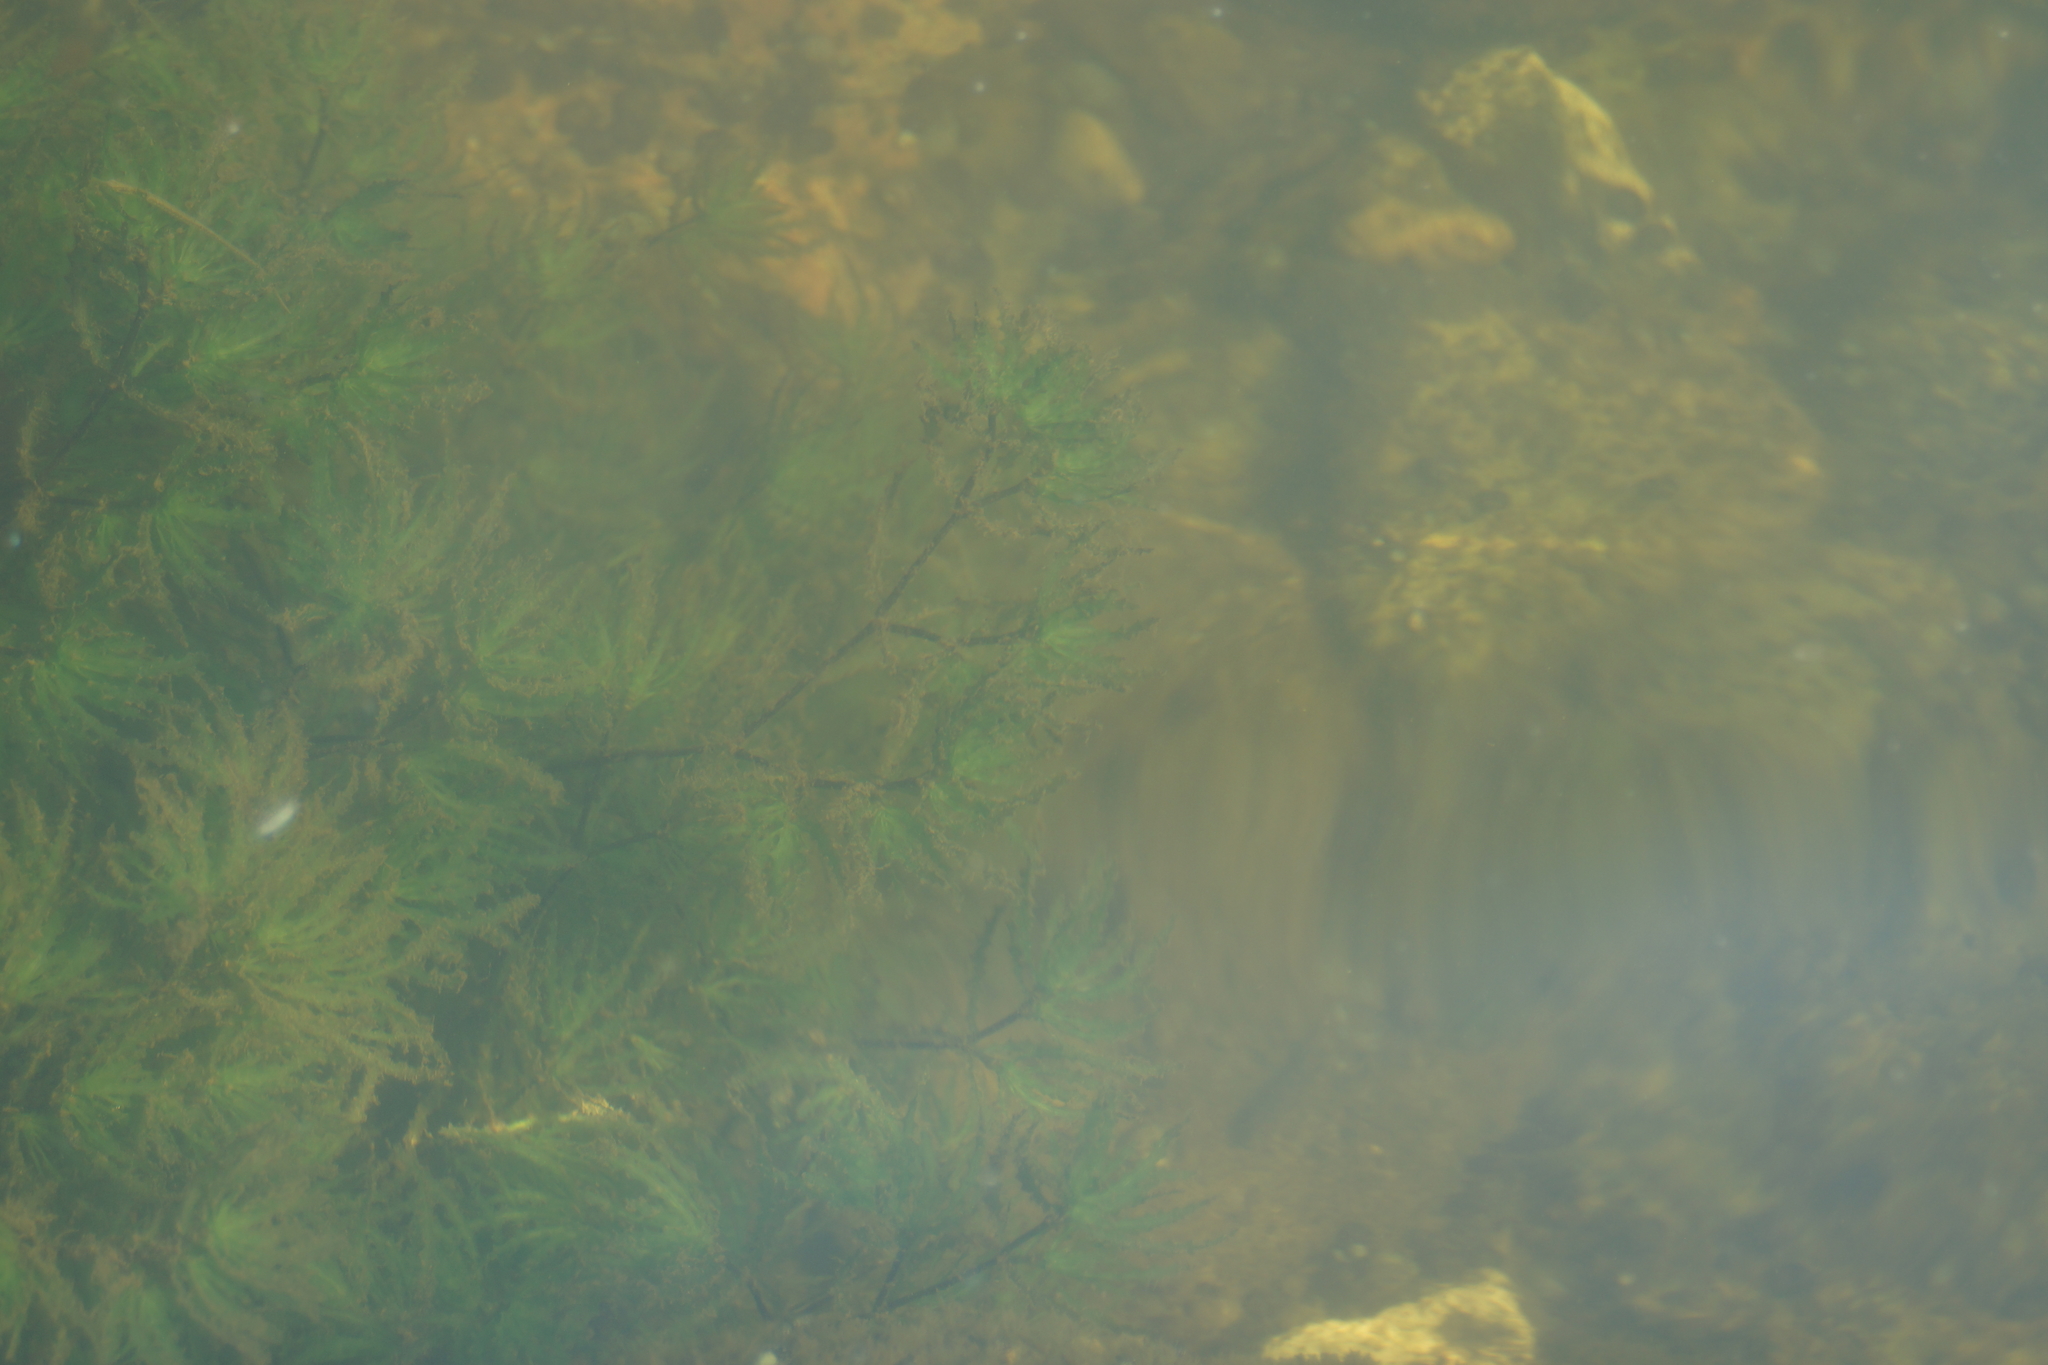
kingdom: Plantae
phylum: Tracheophyta
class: Liliopsida
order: Alismatales
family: Hydrocharitaceae
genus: Najas
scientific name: Najas marina
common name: Holly-leaved naiad
